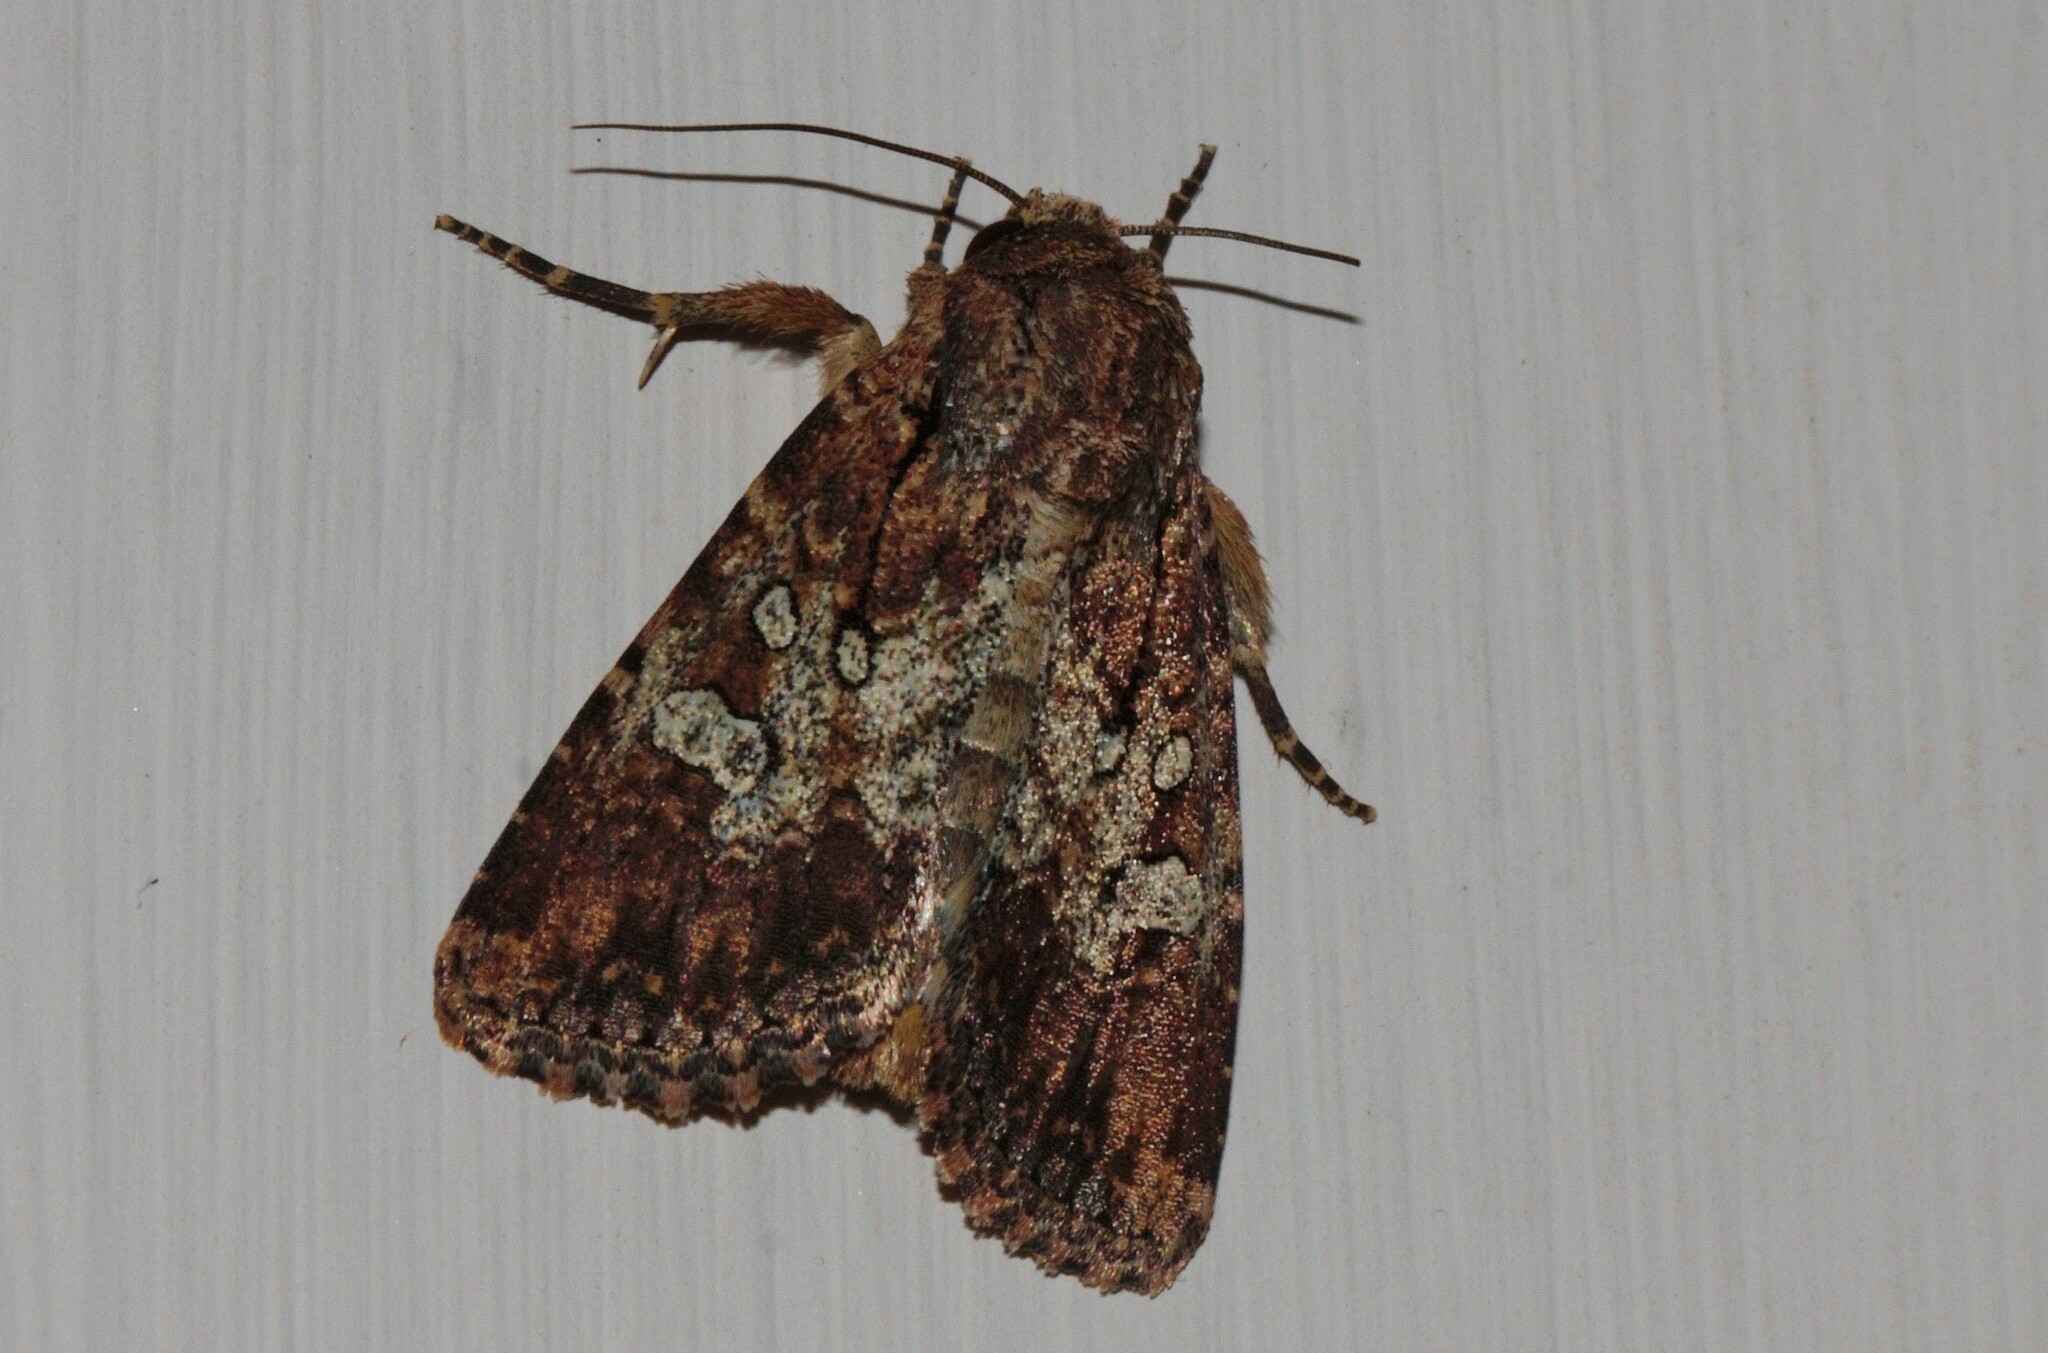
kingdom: Animalia
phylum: Arthropoda
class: Insecta
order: Lepidoptera
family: Noctuidae
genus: Omphalestra
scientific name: Omphalestra mesoglauca
